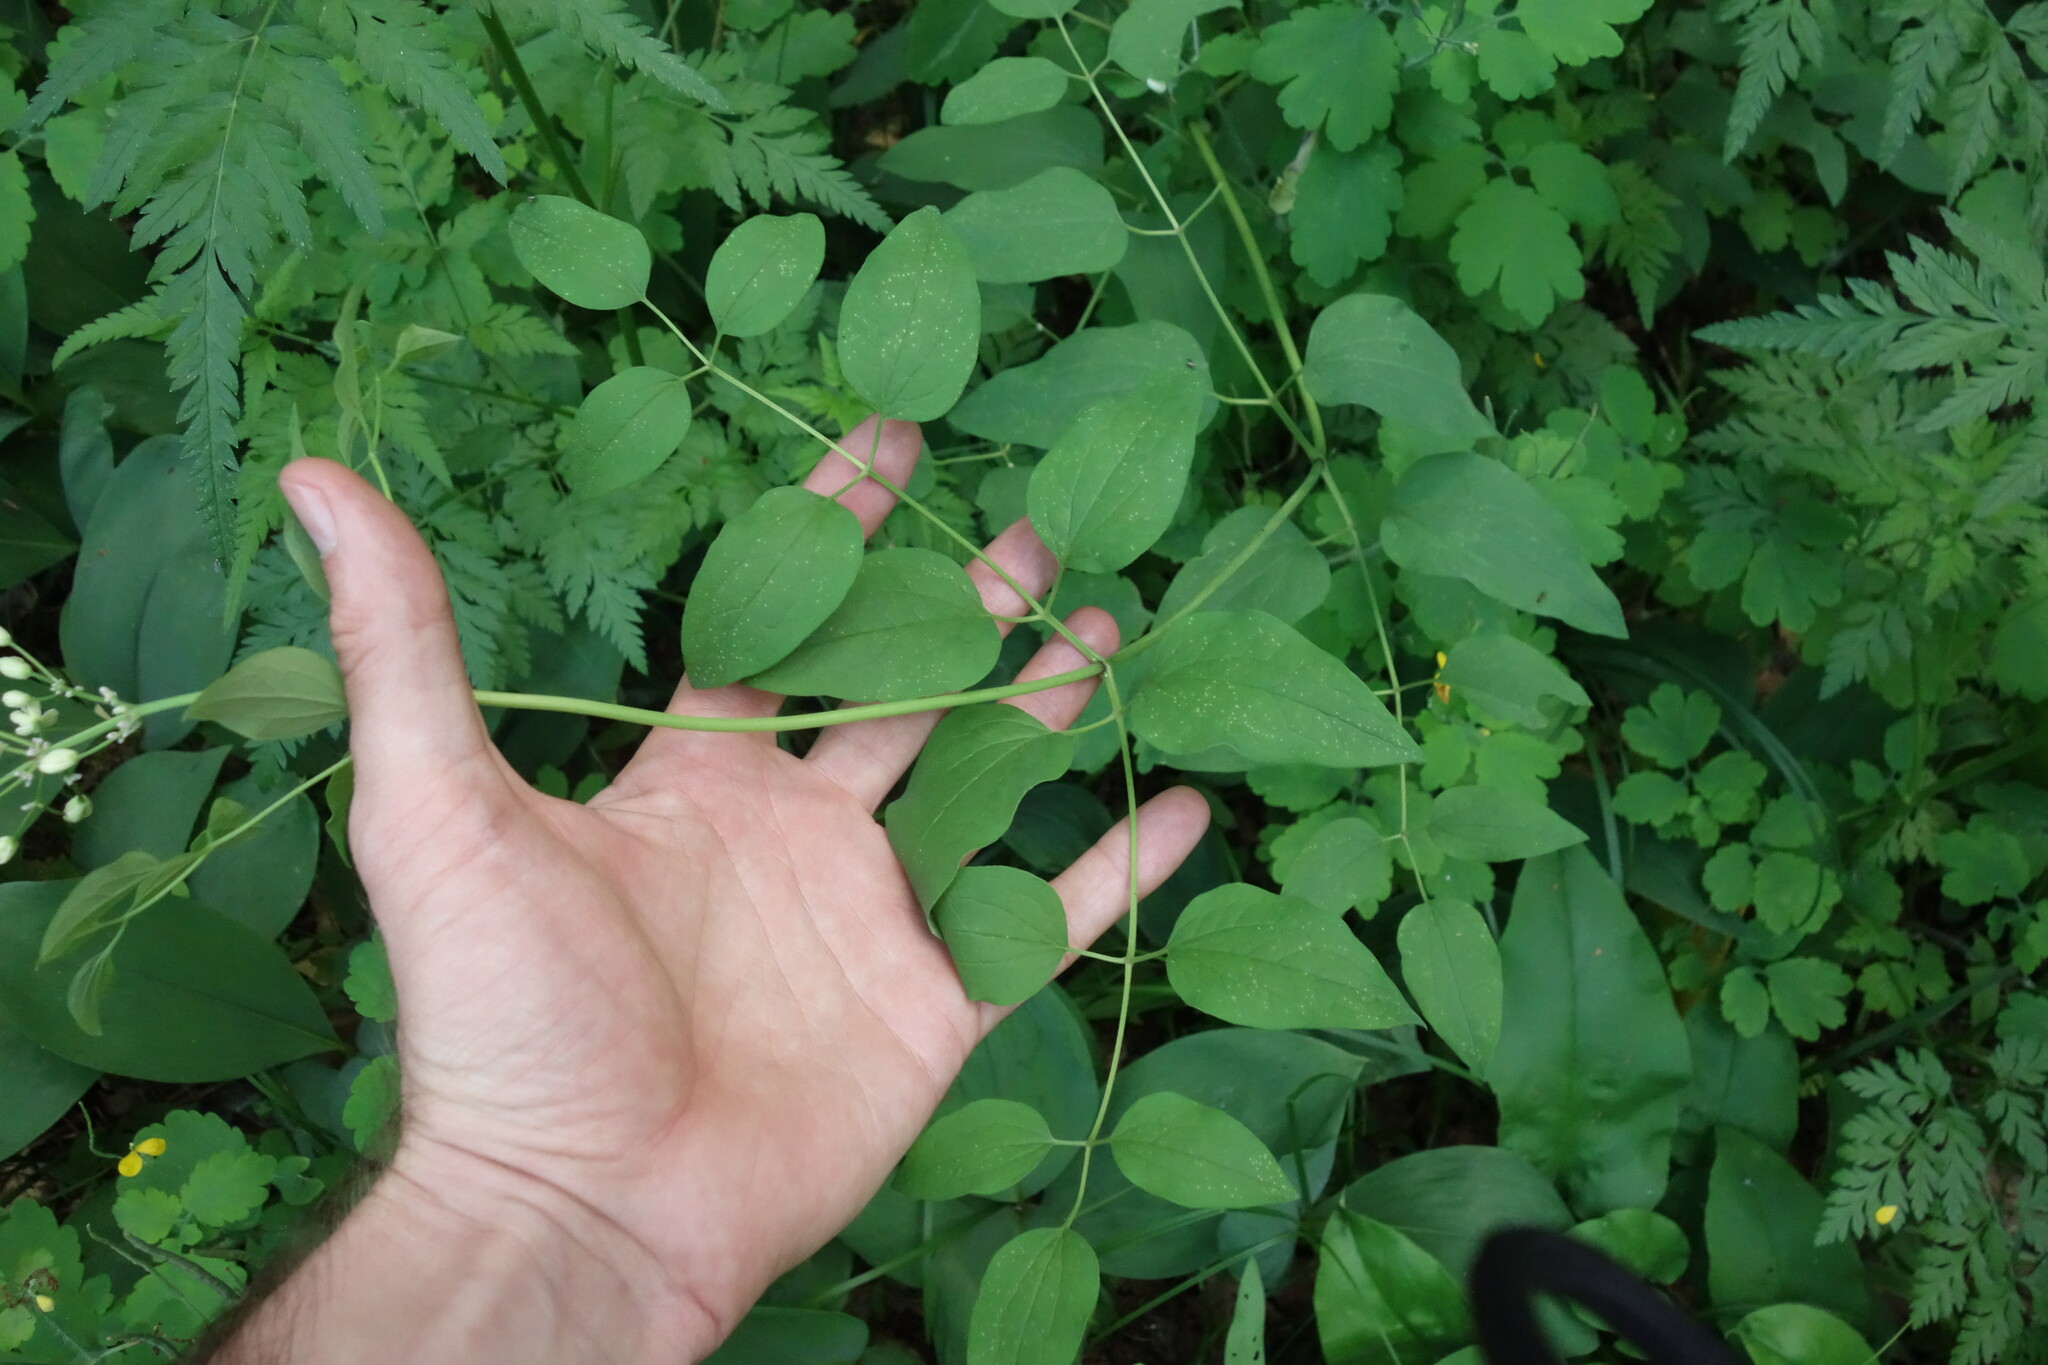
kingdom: Plantae
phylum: Tracheophyta
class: Magnoliopsida
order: Ranunculales
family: Ranunculaceae
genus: Clematis
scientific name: Clematis recta
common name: Ground clematis
